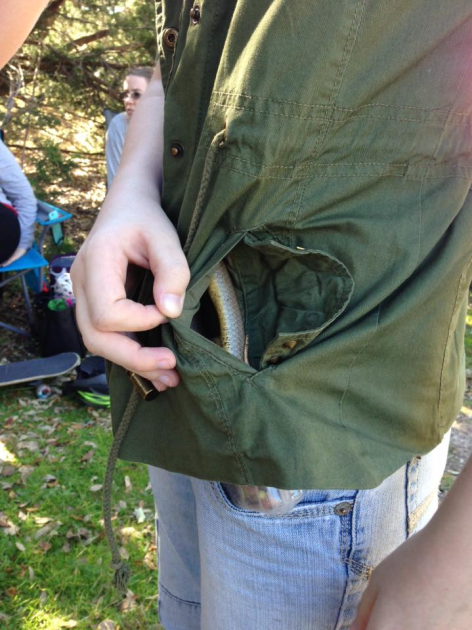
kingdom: Animalia
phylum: Chordata
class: Squamata
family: Colubridae
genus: Coluber
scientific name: Coluber constrictor
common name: Eastern racer
